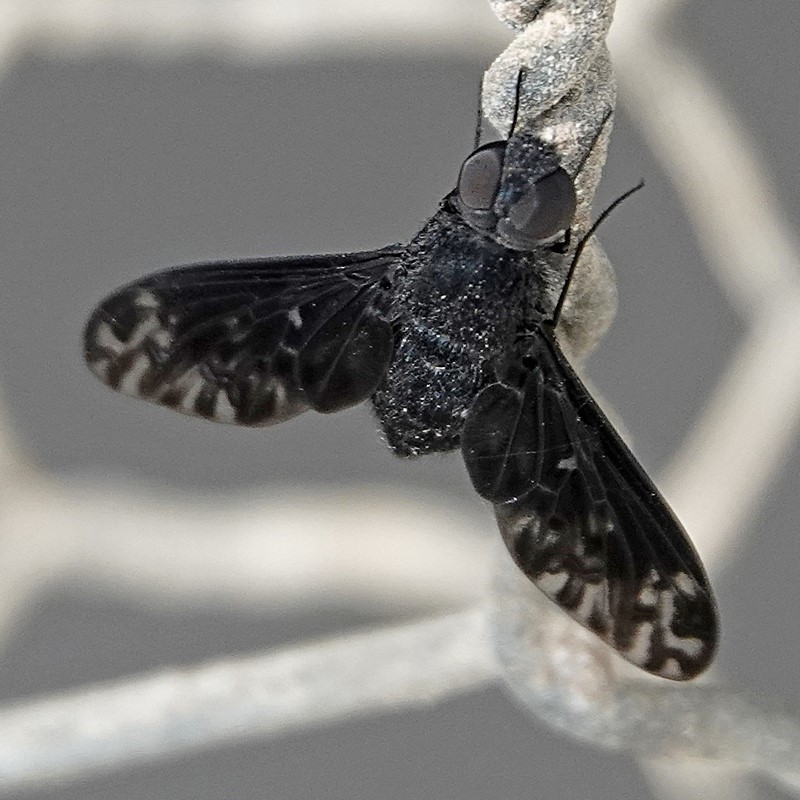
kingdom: Animalia
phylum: Arthropoda
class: Insecta
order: Diptera
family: Bombyliidae
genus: Anthrax
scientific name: Anthrax confluensis
